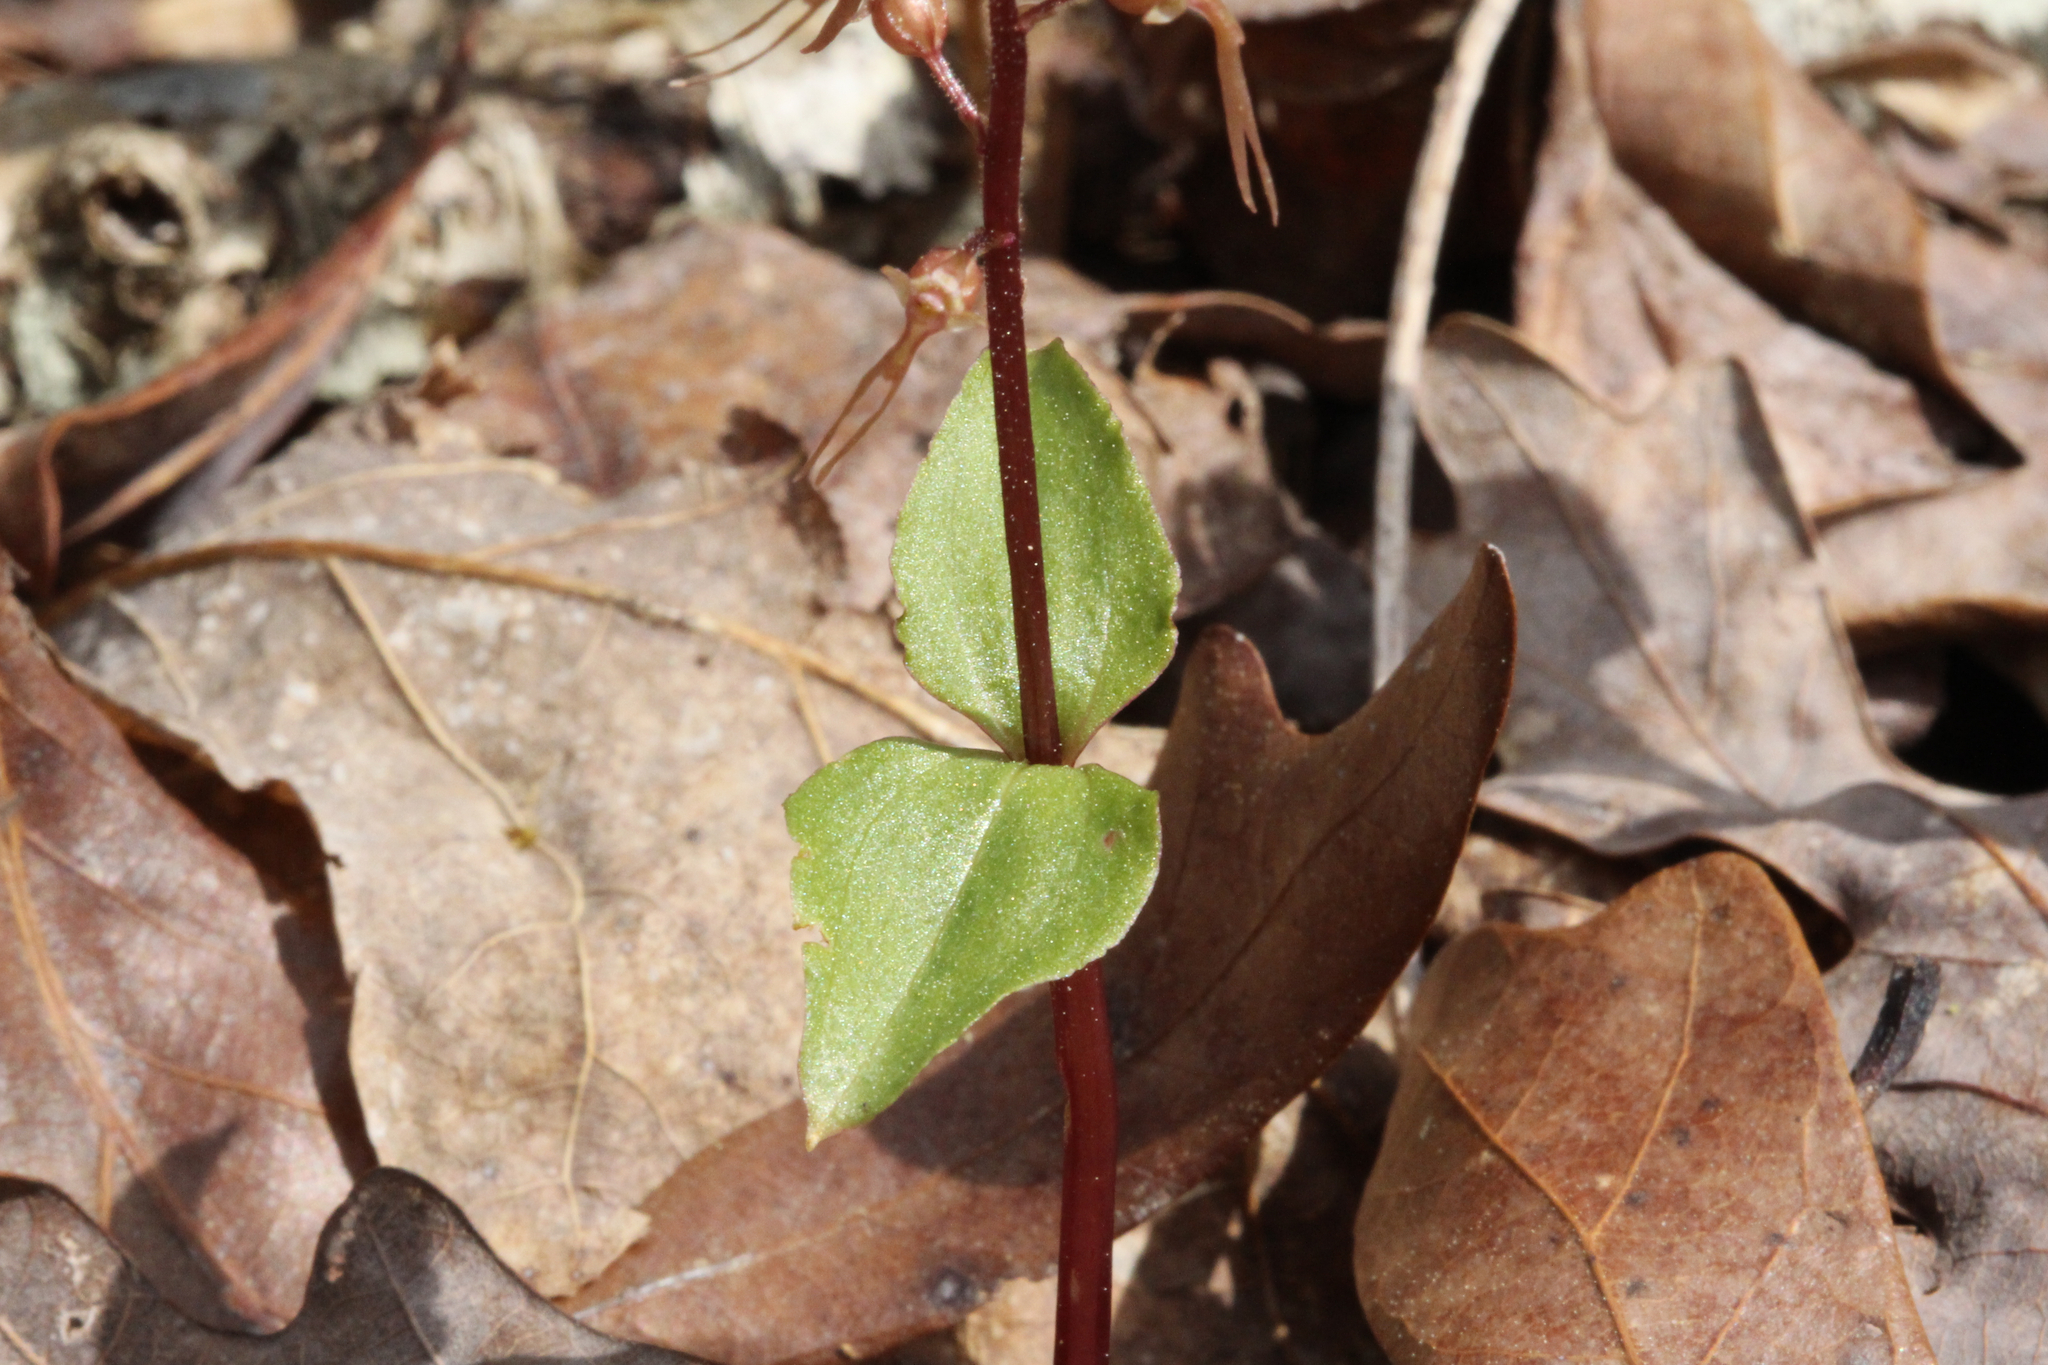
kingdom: Plantae
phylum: Tracheophyta
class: Liliopsida
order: Asparagales
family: Orchidaceae
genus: Neottia
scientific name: Neottia bifolia
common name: Southern twayblade
